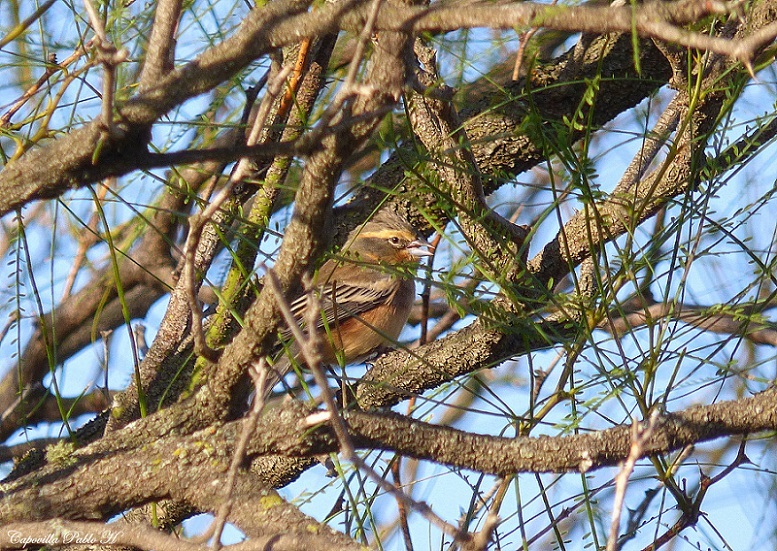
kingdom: Animalia
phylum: Chordata
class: Aves
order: Passeriformes
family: Thraupidae
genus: Poospiza
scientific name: Poospiza ornata
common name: Cinnamon warbling finch
